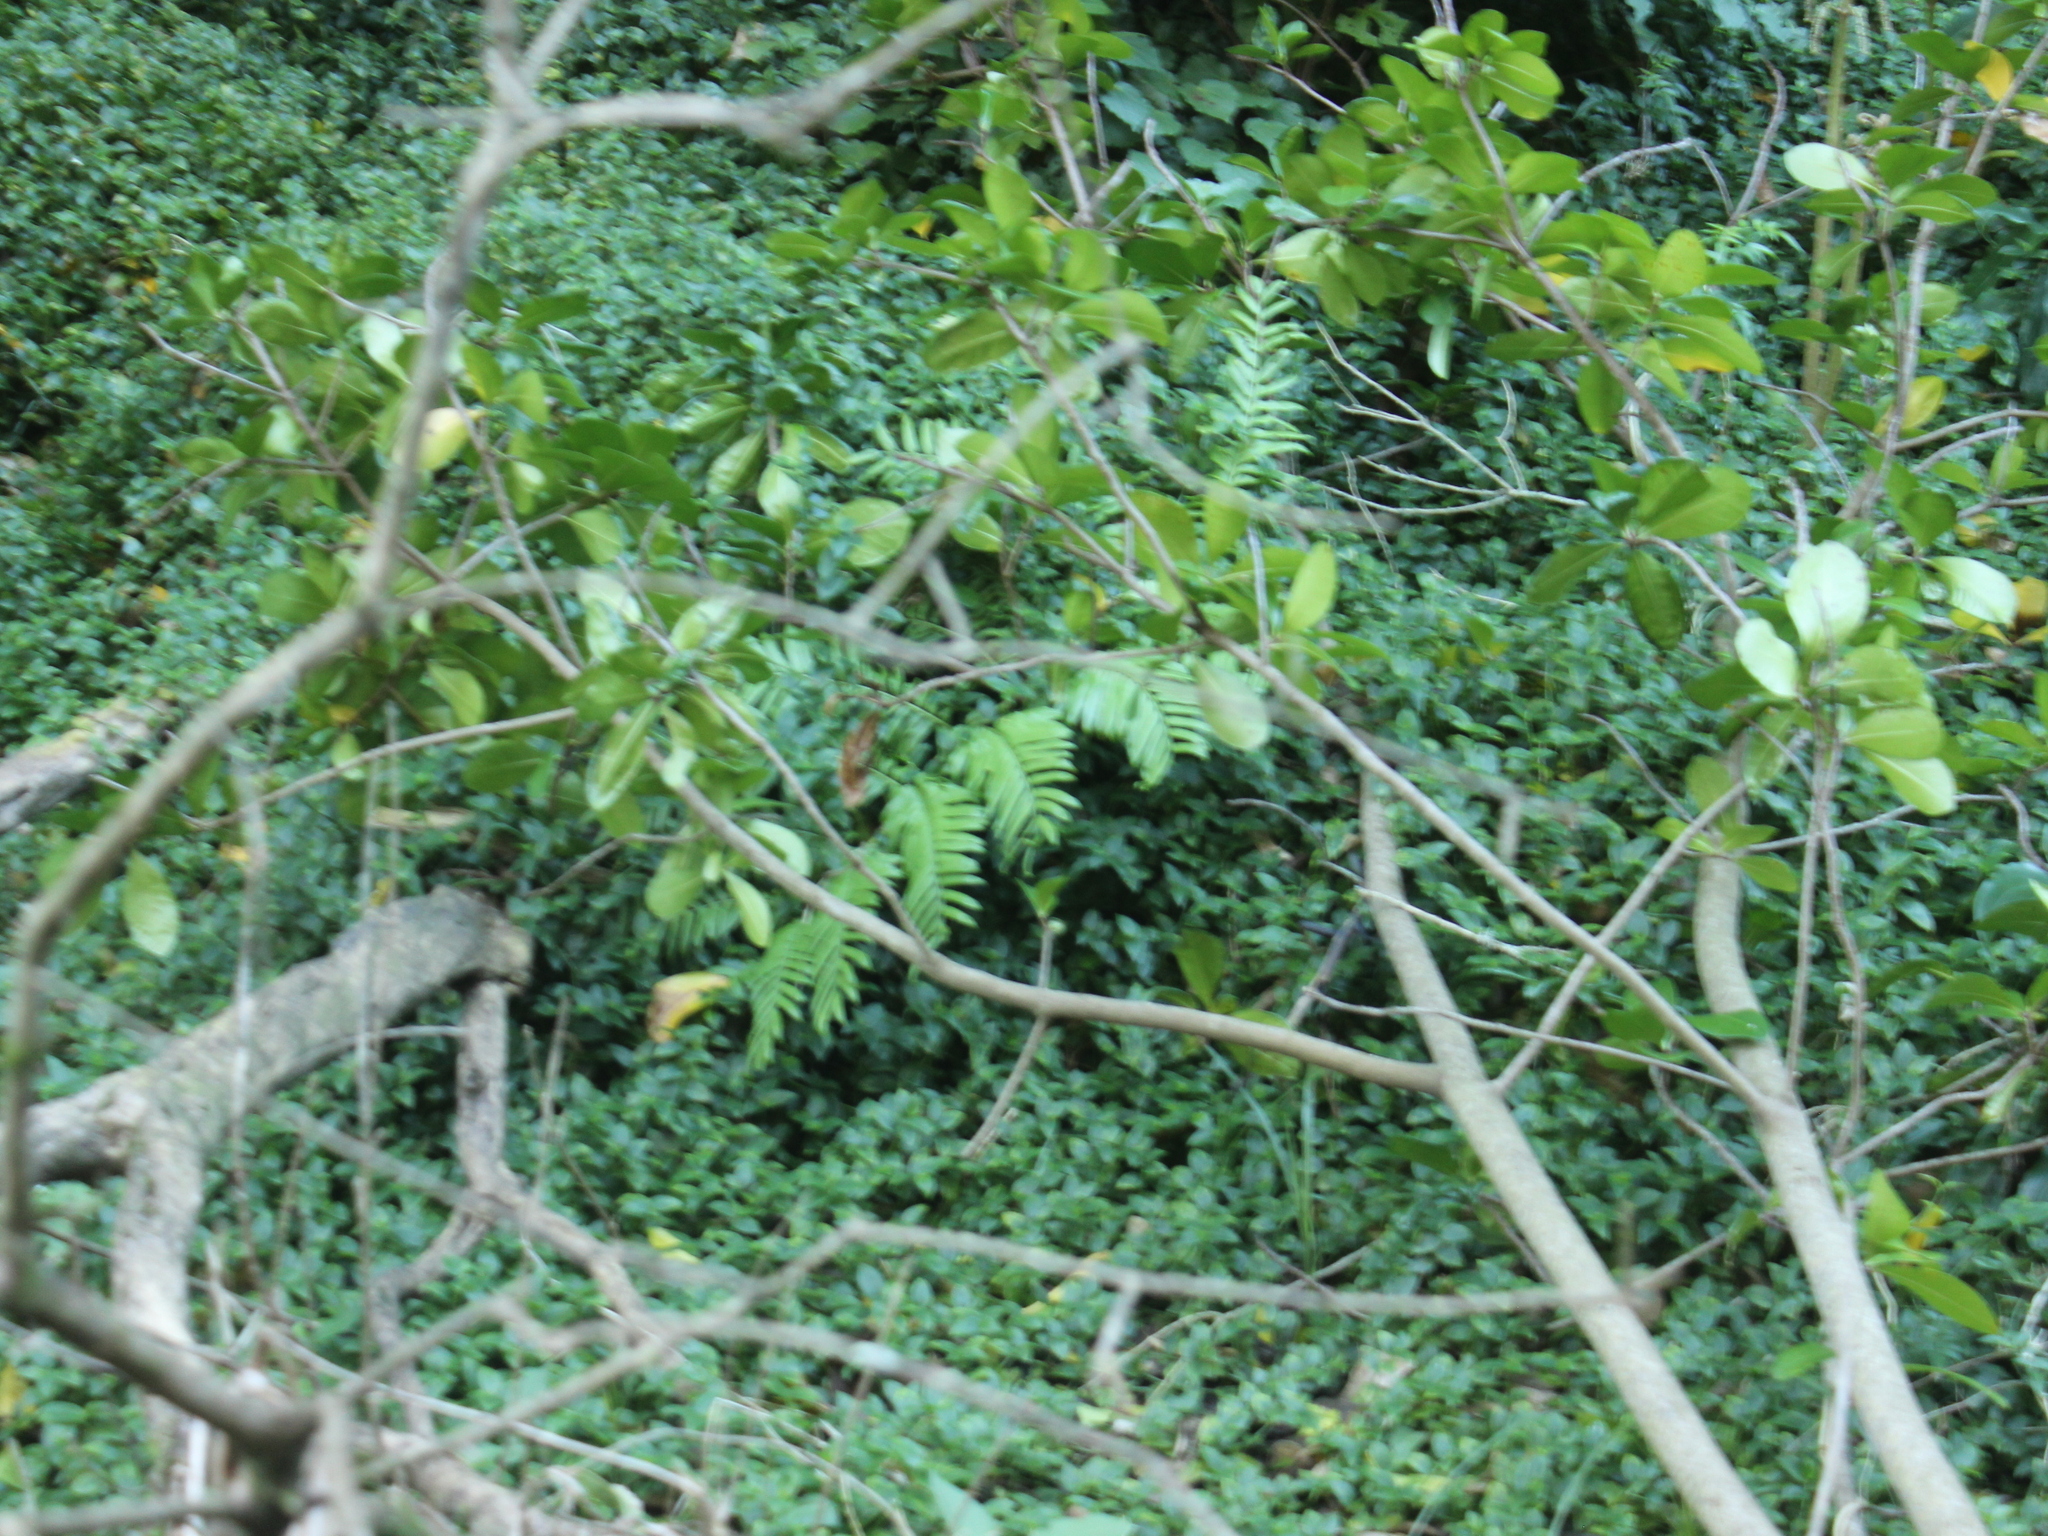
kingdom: Plantae
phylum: Tracheophyta
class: Polypodiopsida
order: Marattiales
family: Marattiaceae
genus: Ptisana
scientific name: Ptisana salicina
